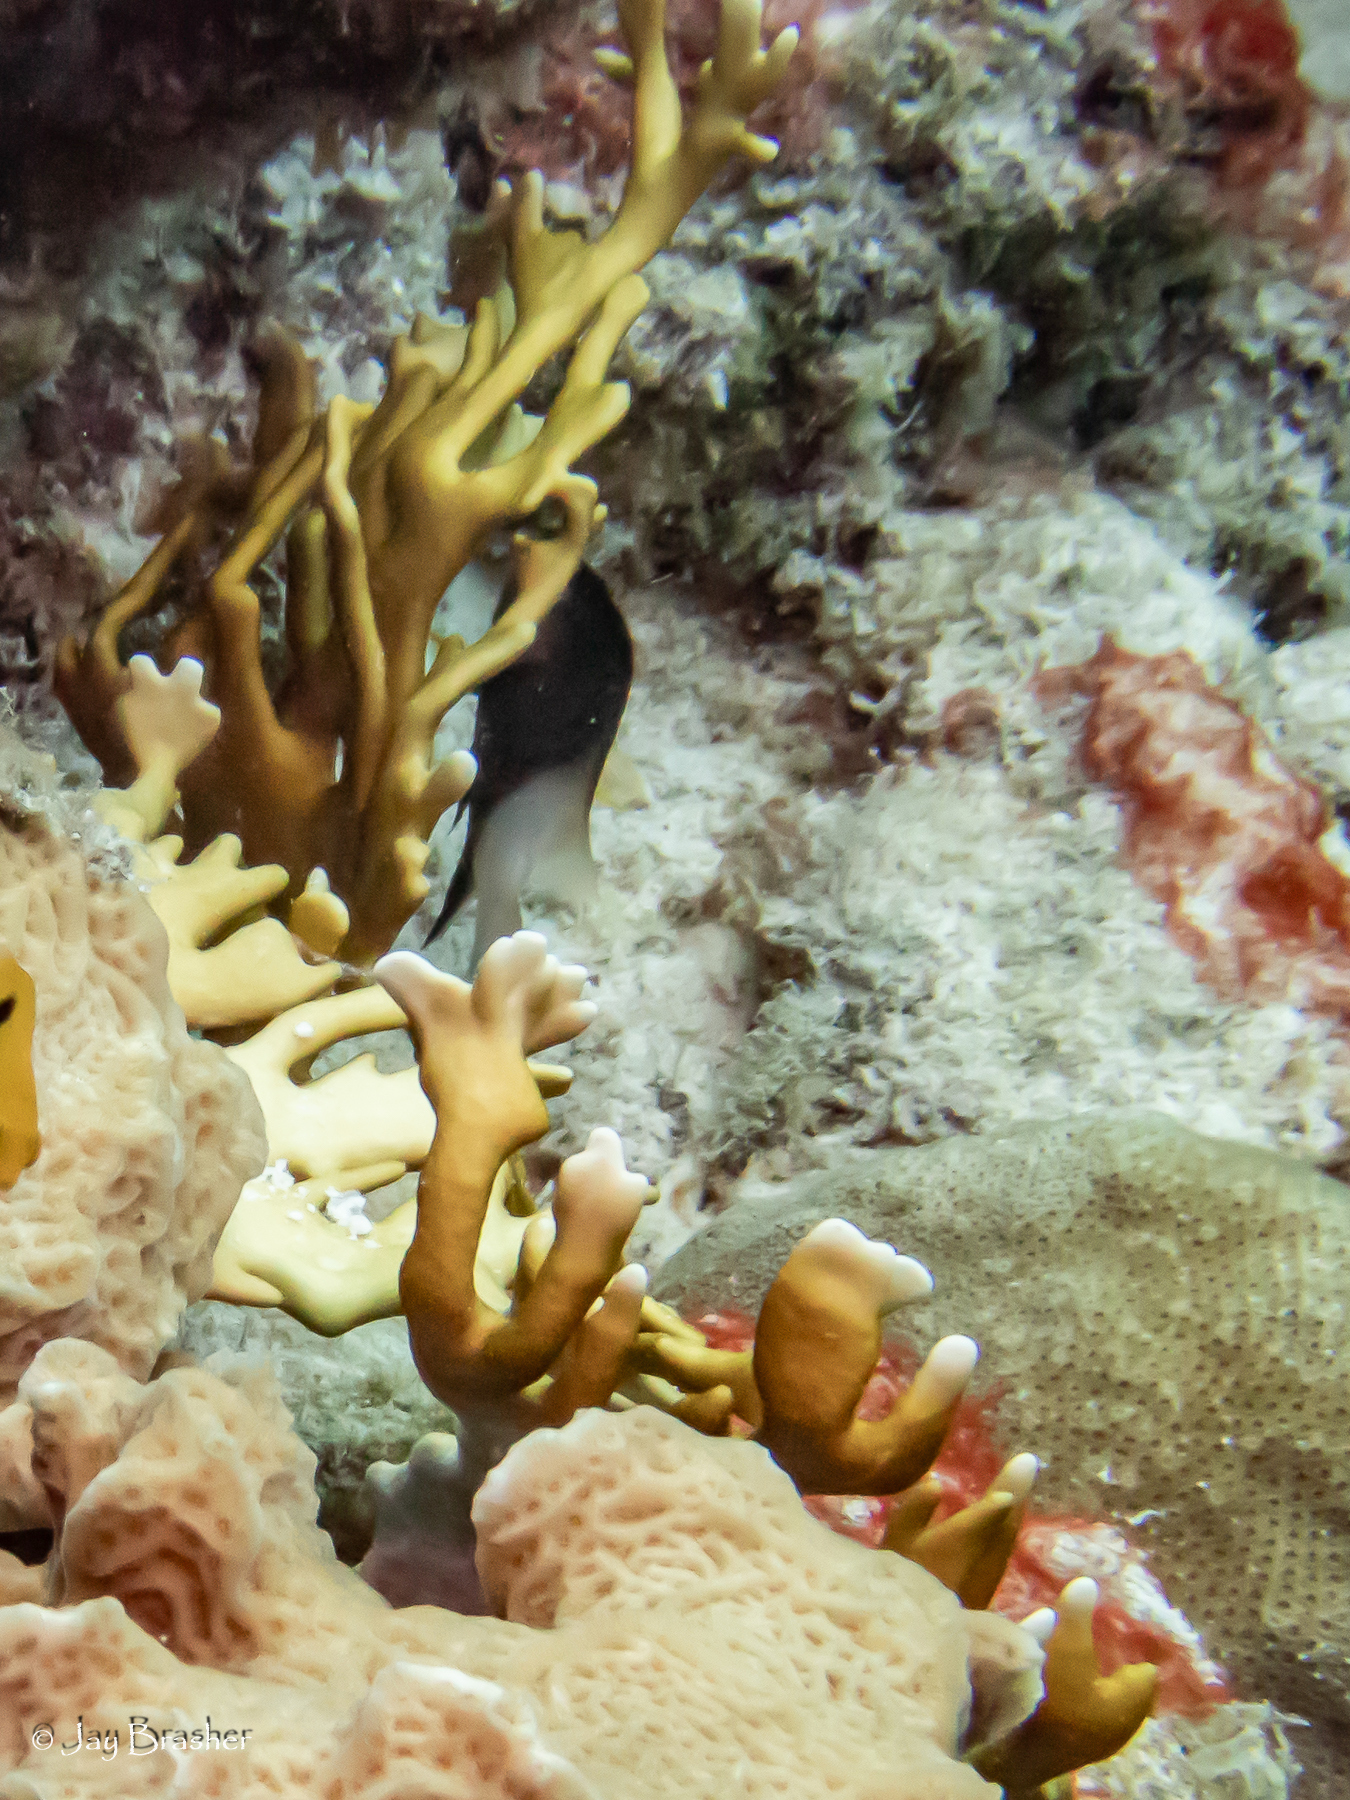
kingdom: Animalia
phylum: Chordata
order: Perciformes
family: Pomacentridae
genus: Stegastes
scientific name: Stegastes partitus
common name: Bicolor damselfish
